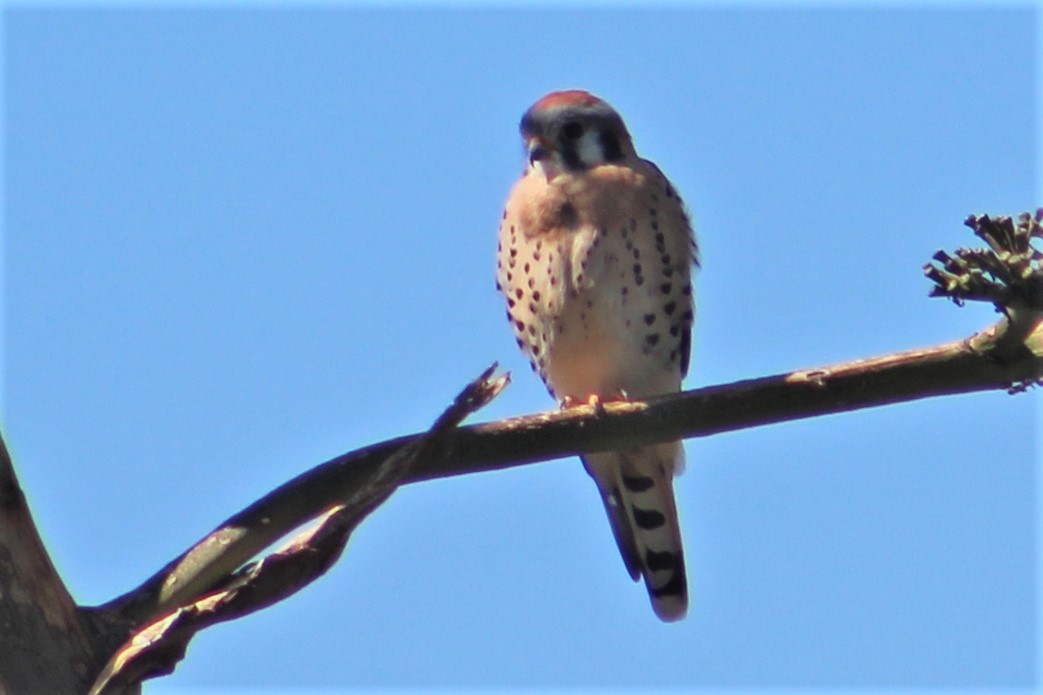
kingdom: Animalia
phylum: Chordata
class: Aves
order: Falconiformes
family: Falconidae
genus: Falco
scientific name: Falco sparverius
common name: American kestrel
